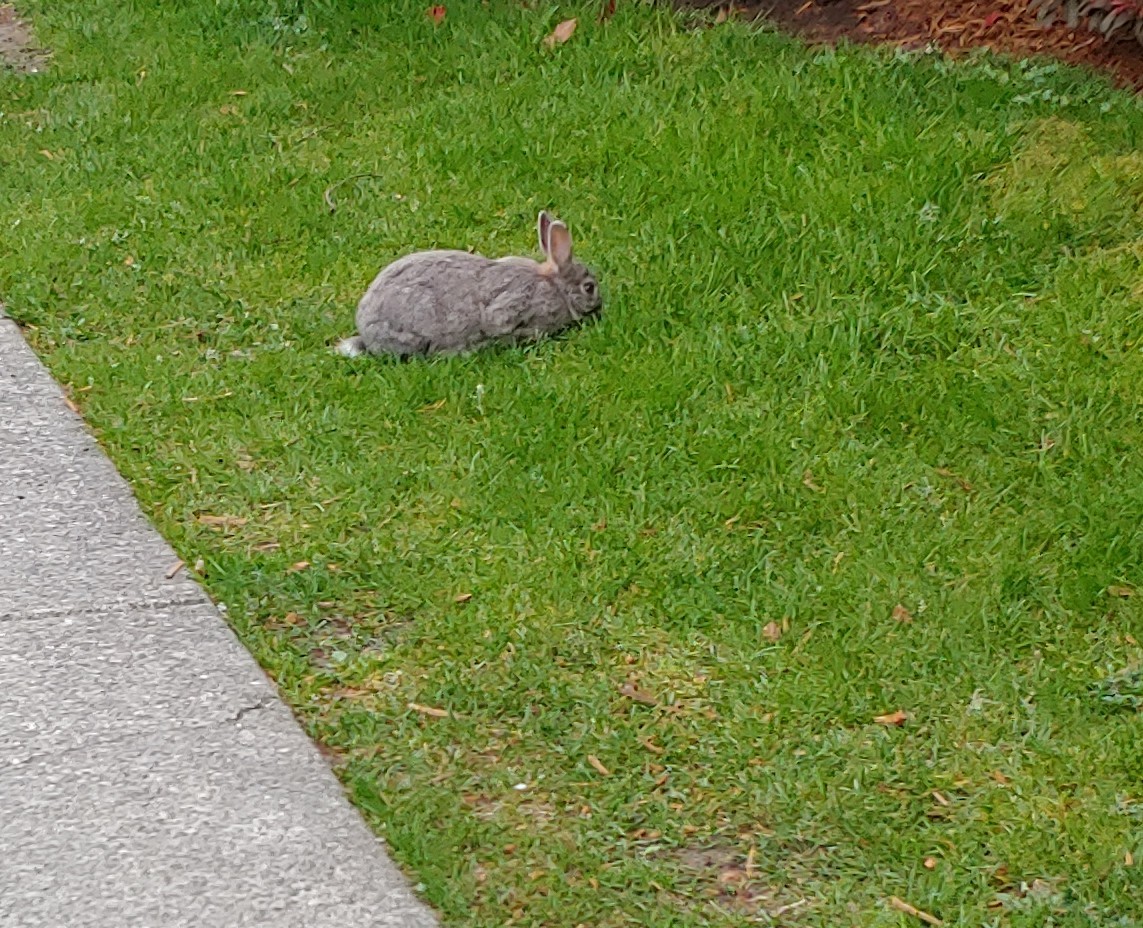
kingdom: Animalia
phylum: Chordata
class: Mammalia
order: Lagomorpha
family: Leporidae
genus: Oryctolagus
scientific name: Oryctolagus cuniculus
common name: European rabbit
